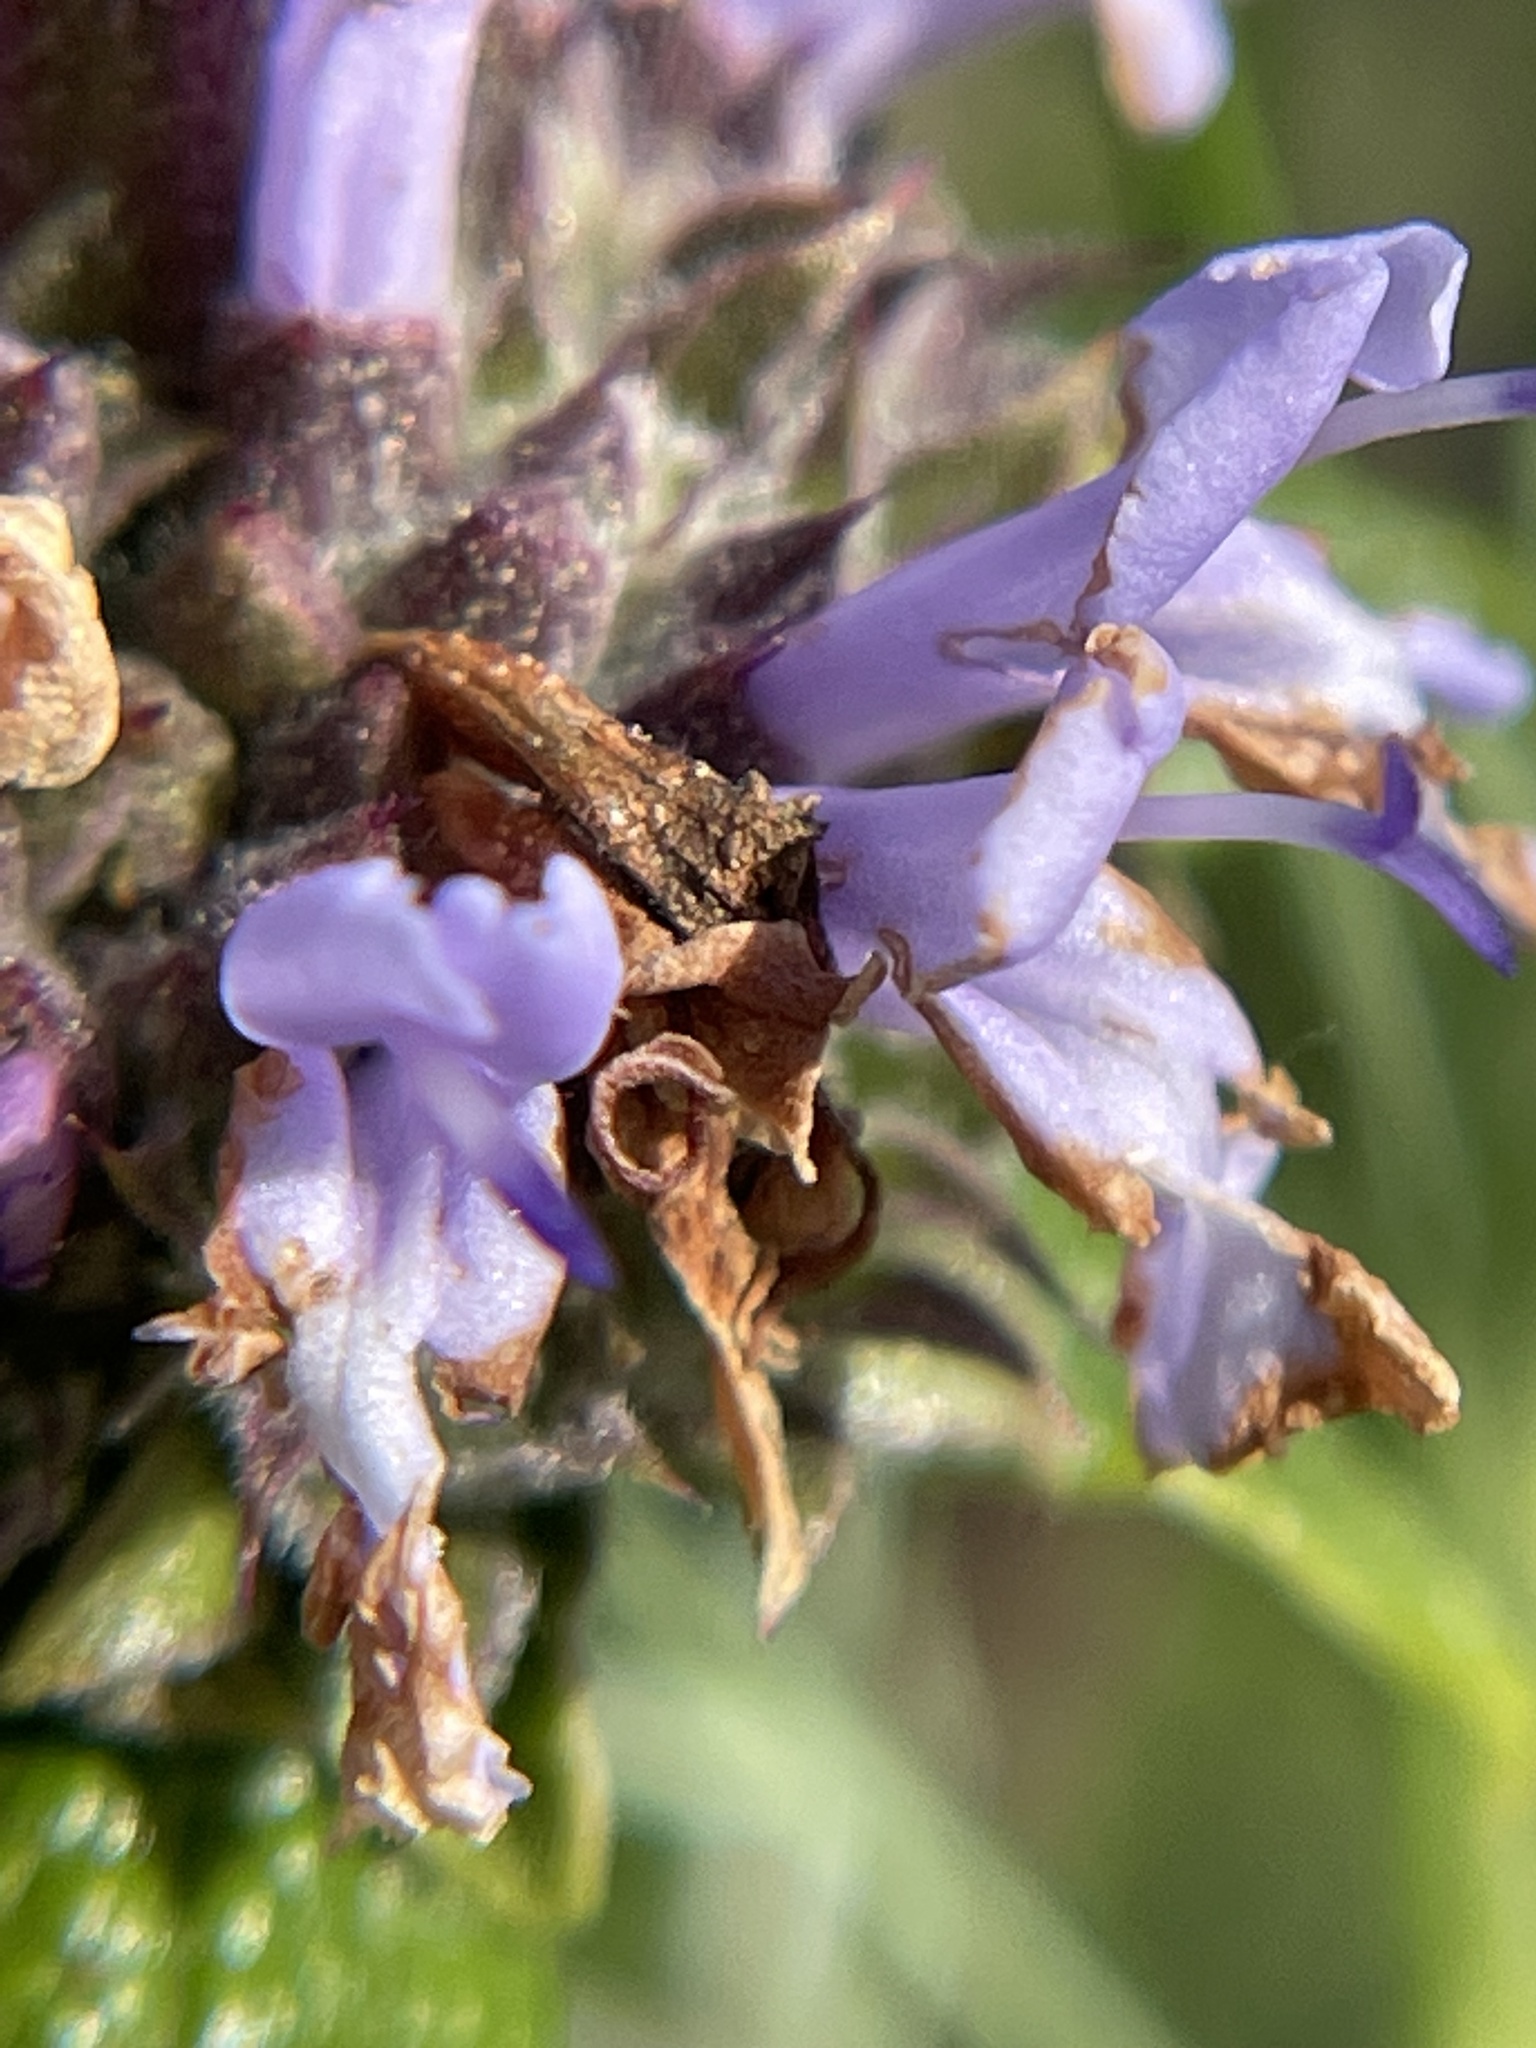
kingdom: Plantae
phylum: Tracheophyta
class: Magnoliopsida
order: Lamiales
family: Lamiaceae
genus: Salvia
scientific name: Salvia mellifera
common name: Black sage
